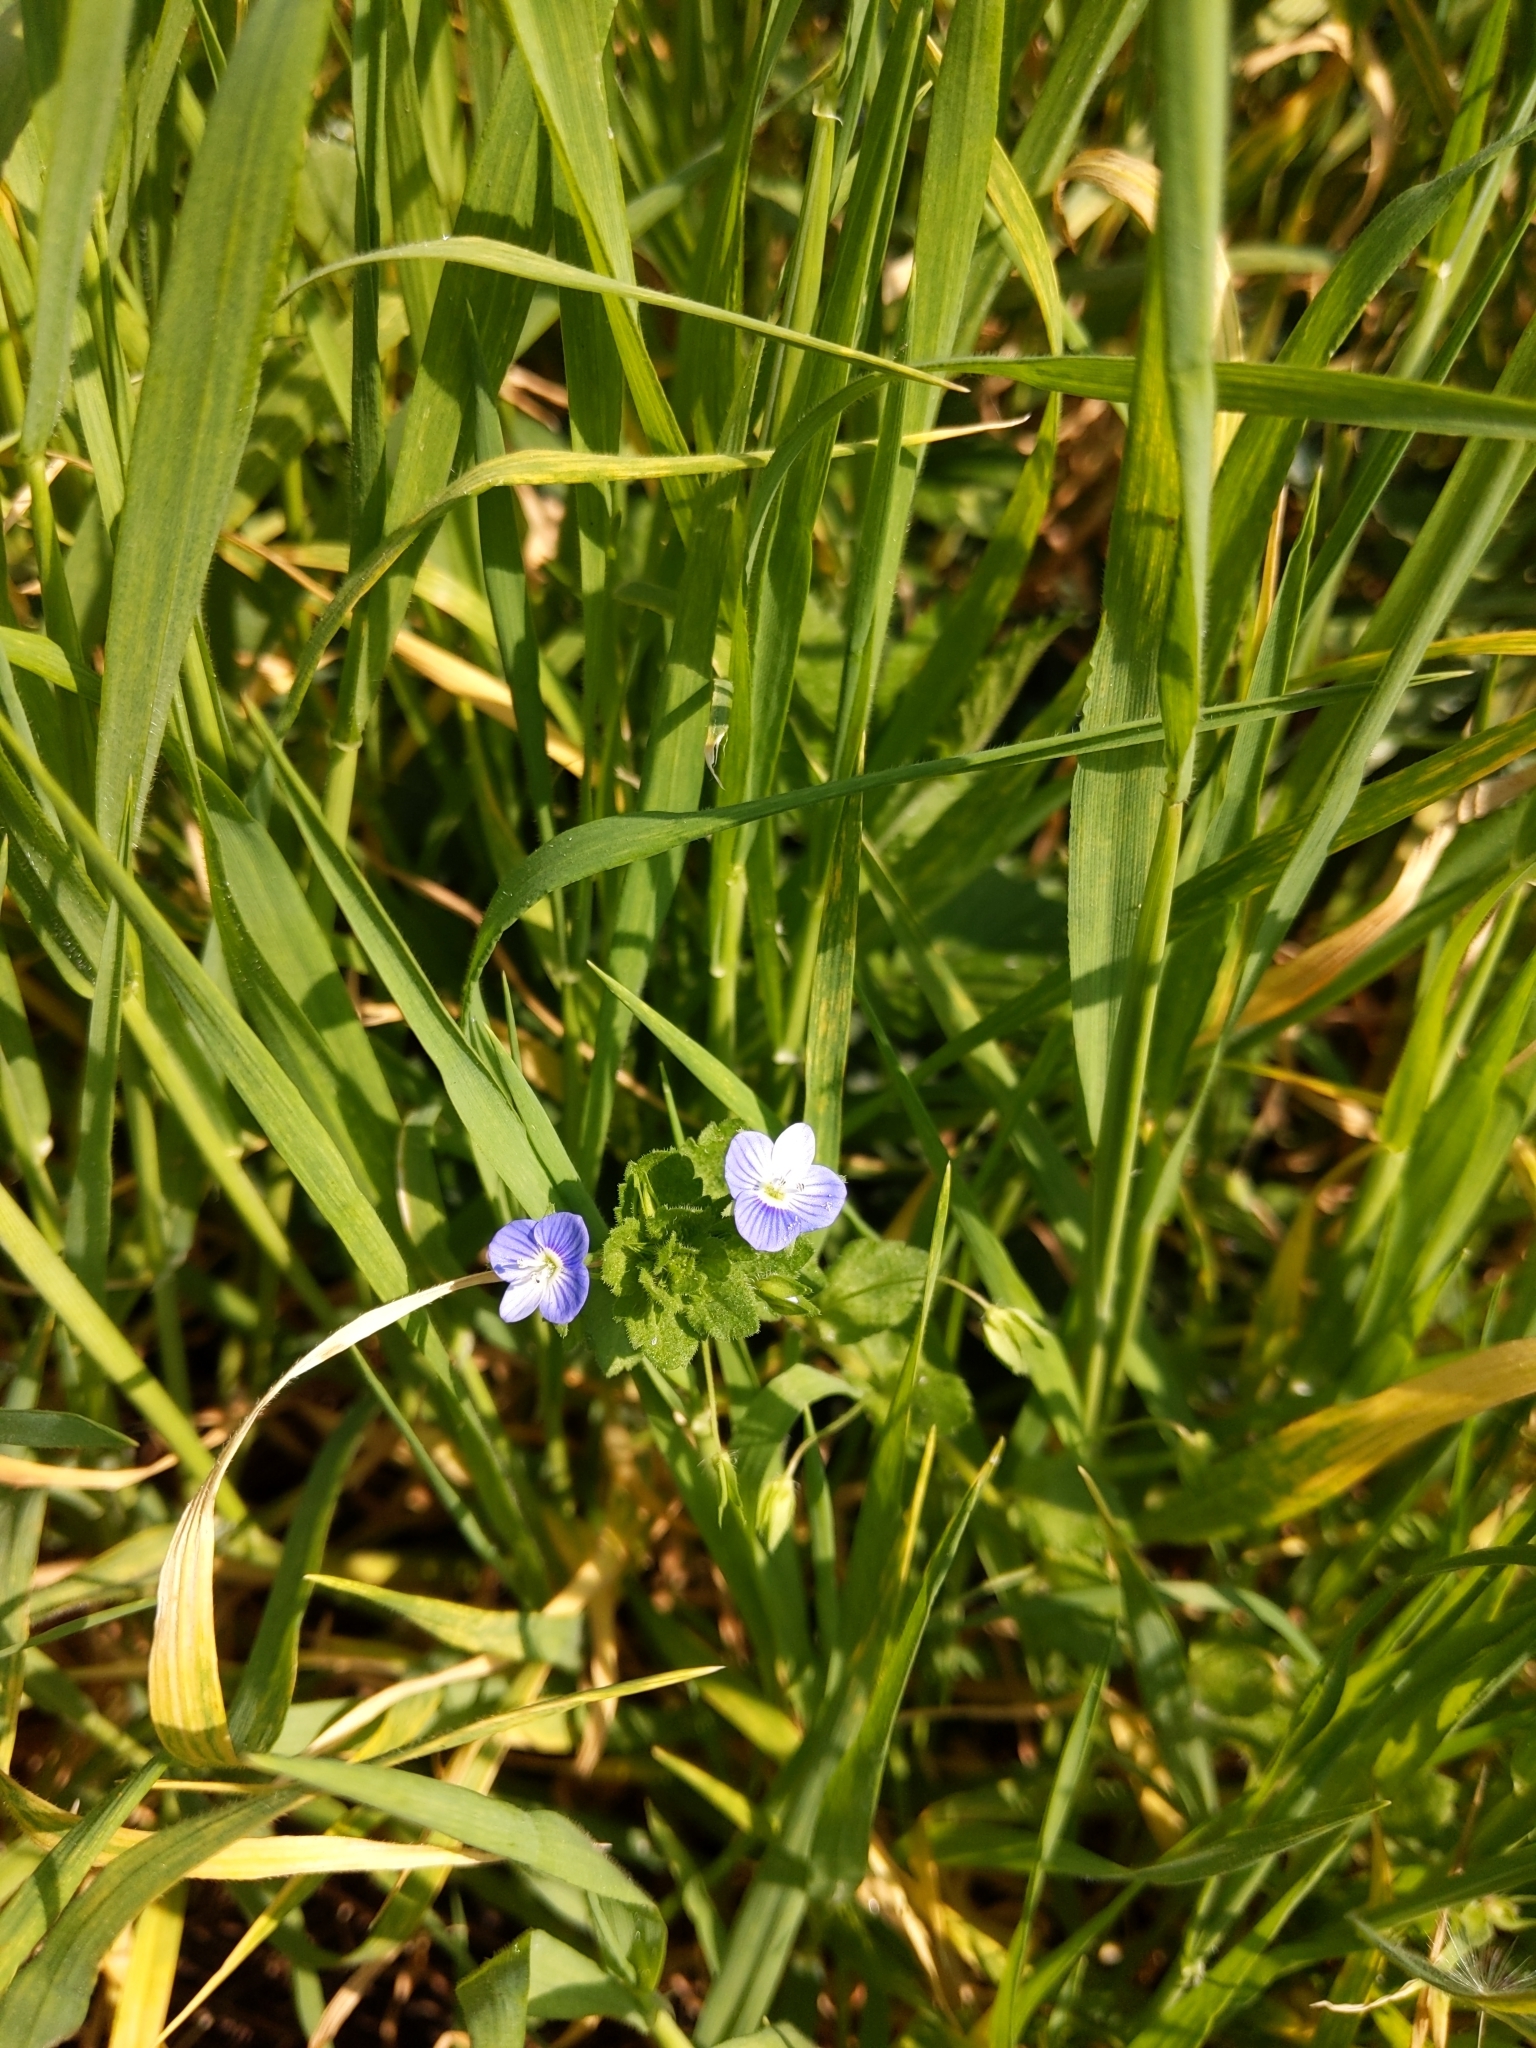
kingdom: Plantae
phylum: Tracheophyta
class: Magnoliopsida
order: Lamiales
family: Plantaginaceae
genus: Veronica
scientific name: Veronica persica
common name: Common field-speedwell
